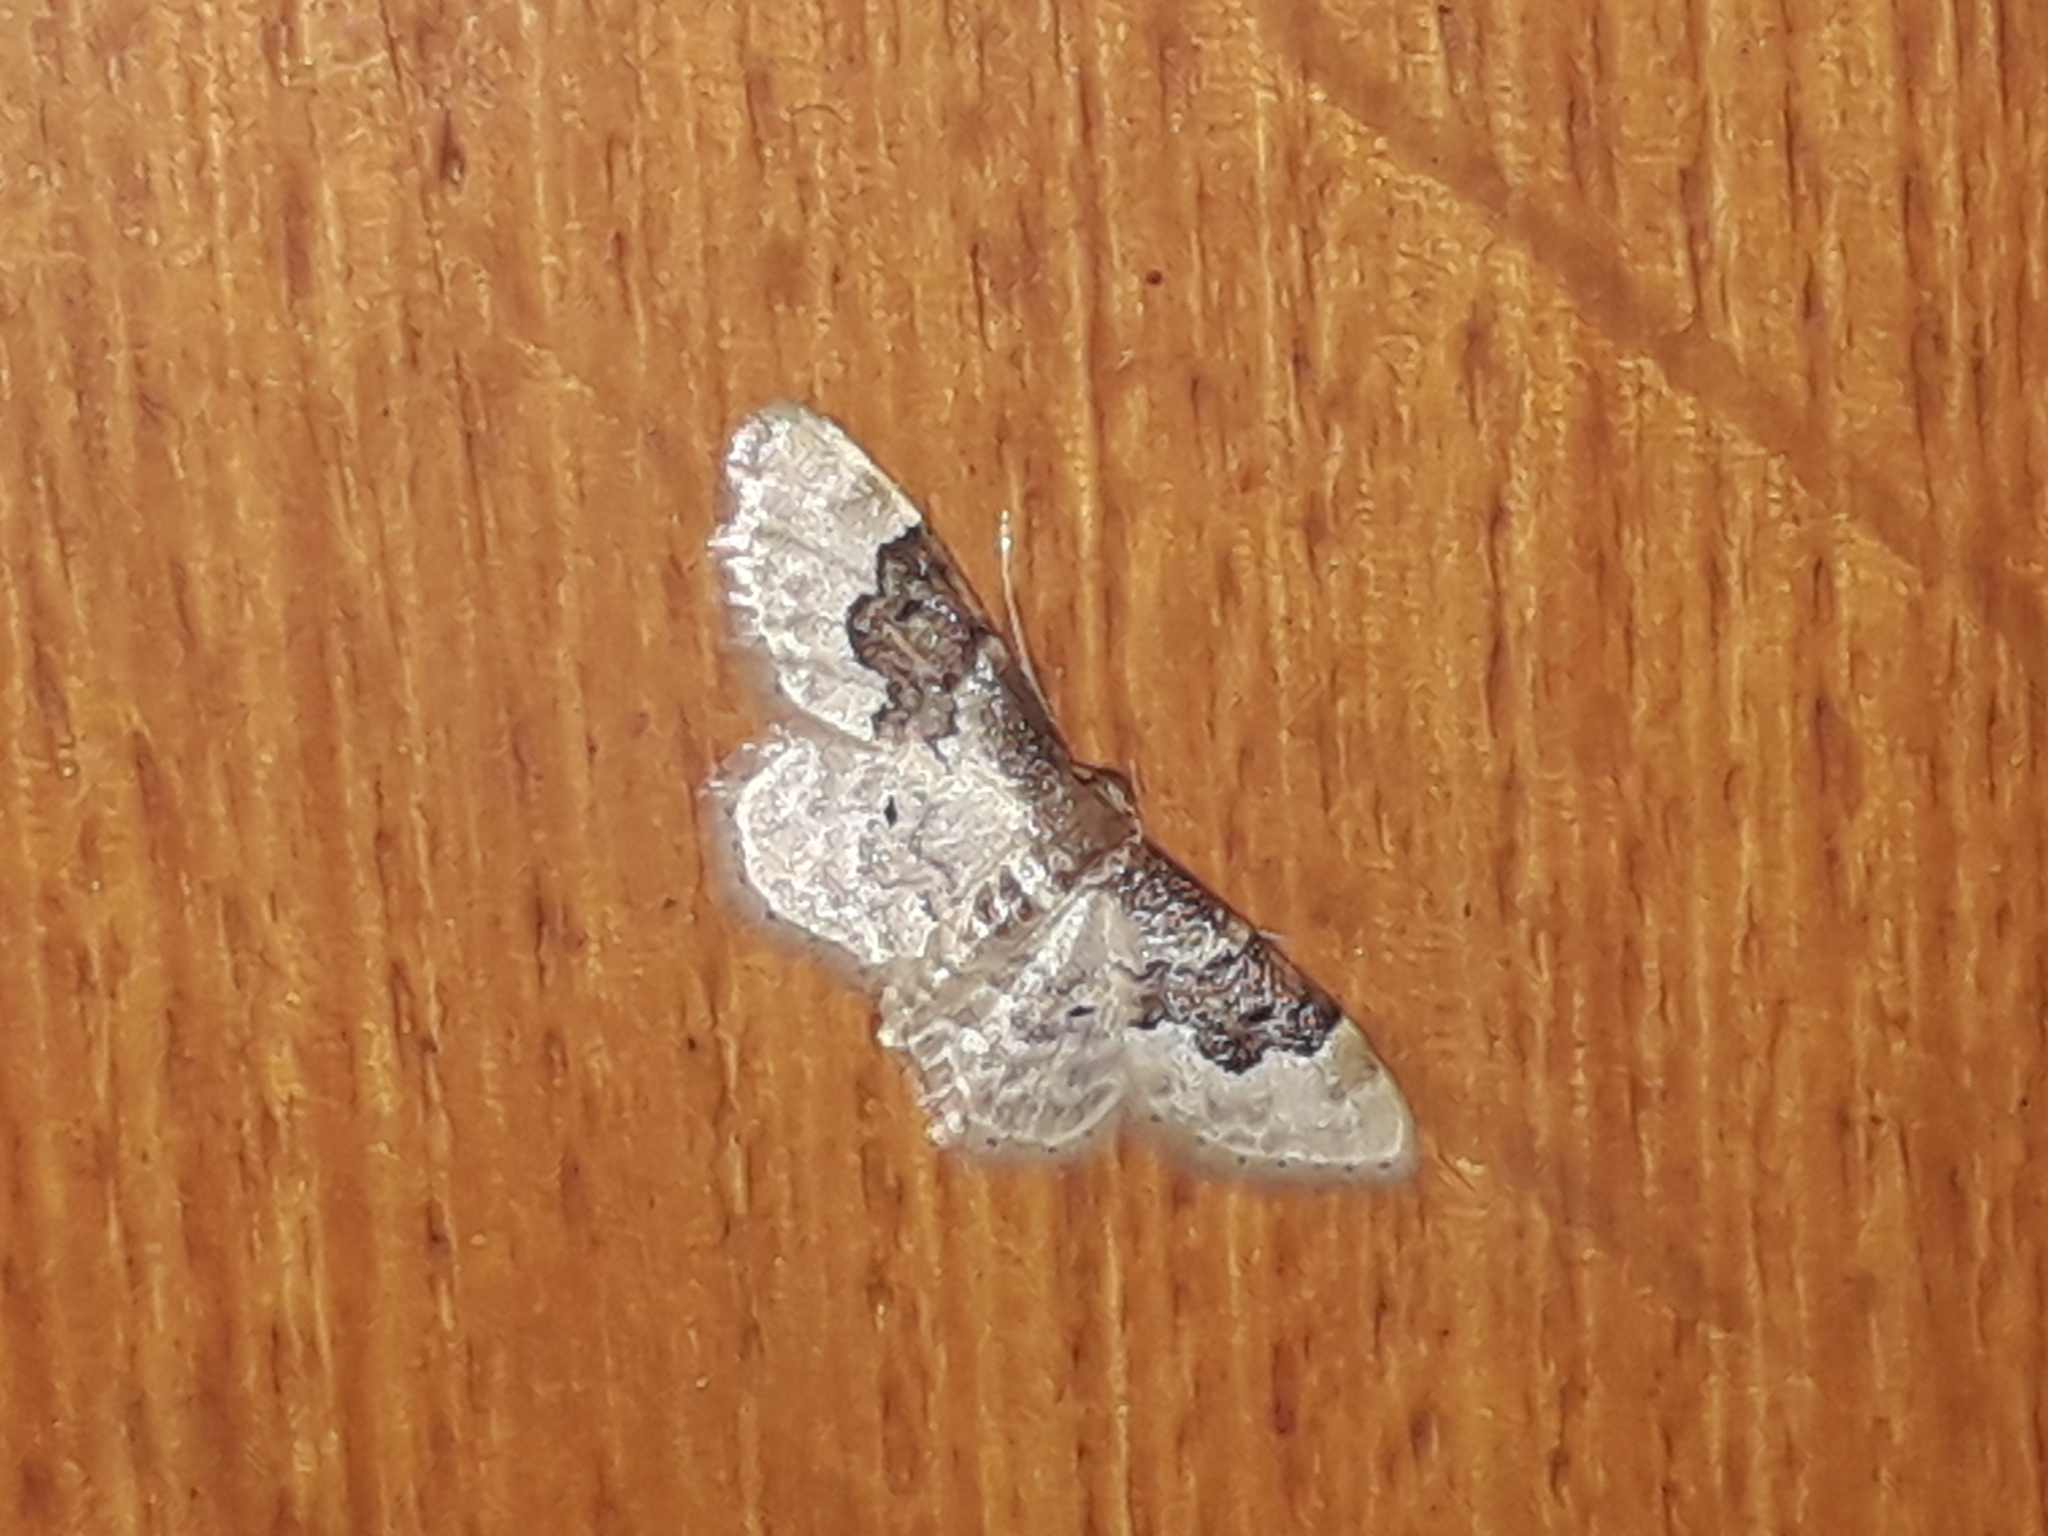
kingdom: Animalia
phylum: Arthropoda
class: Insecta
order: Lepidoptera
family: Geometridae
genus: Idaea
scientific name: Idaea rusticata
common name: Least carpet
